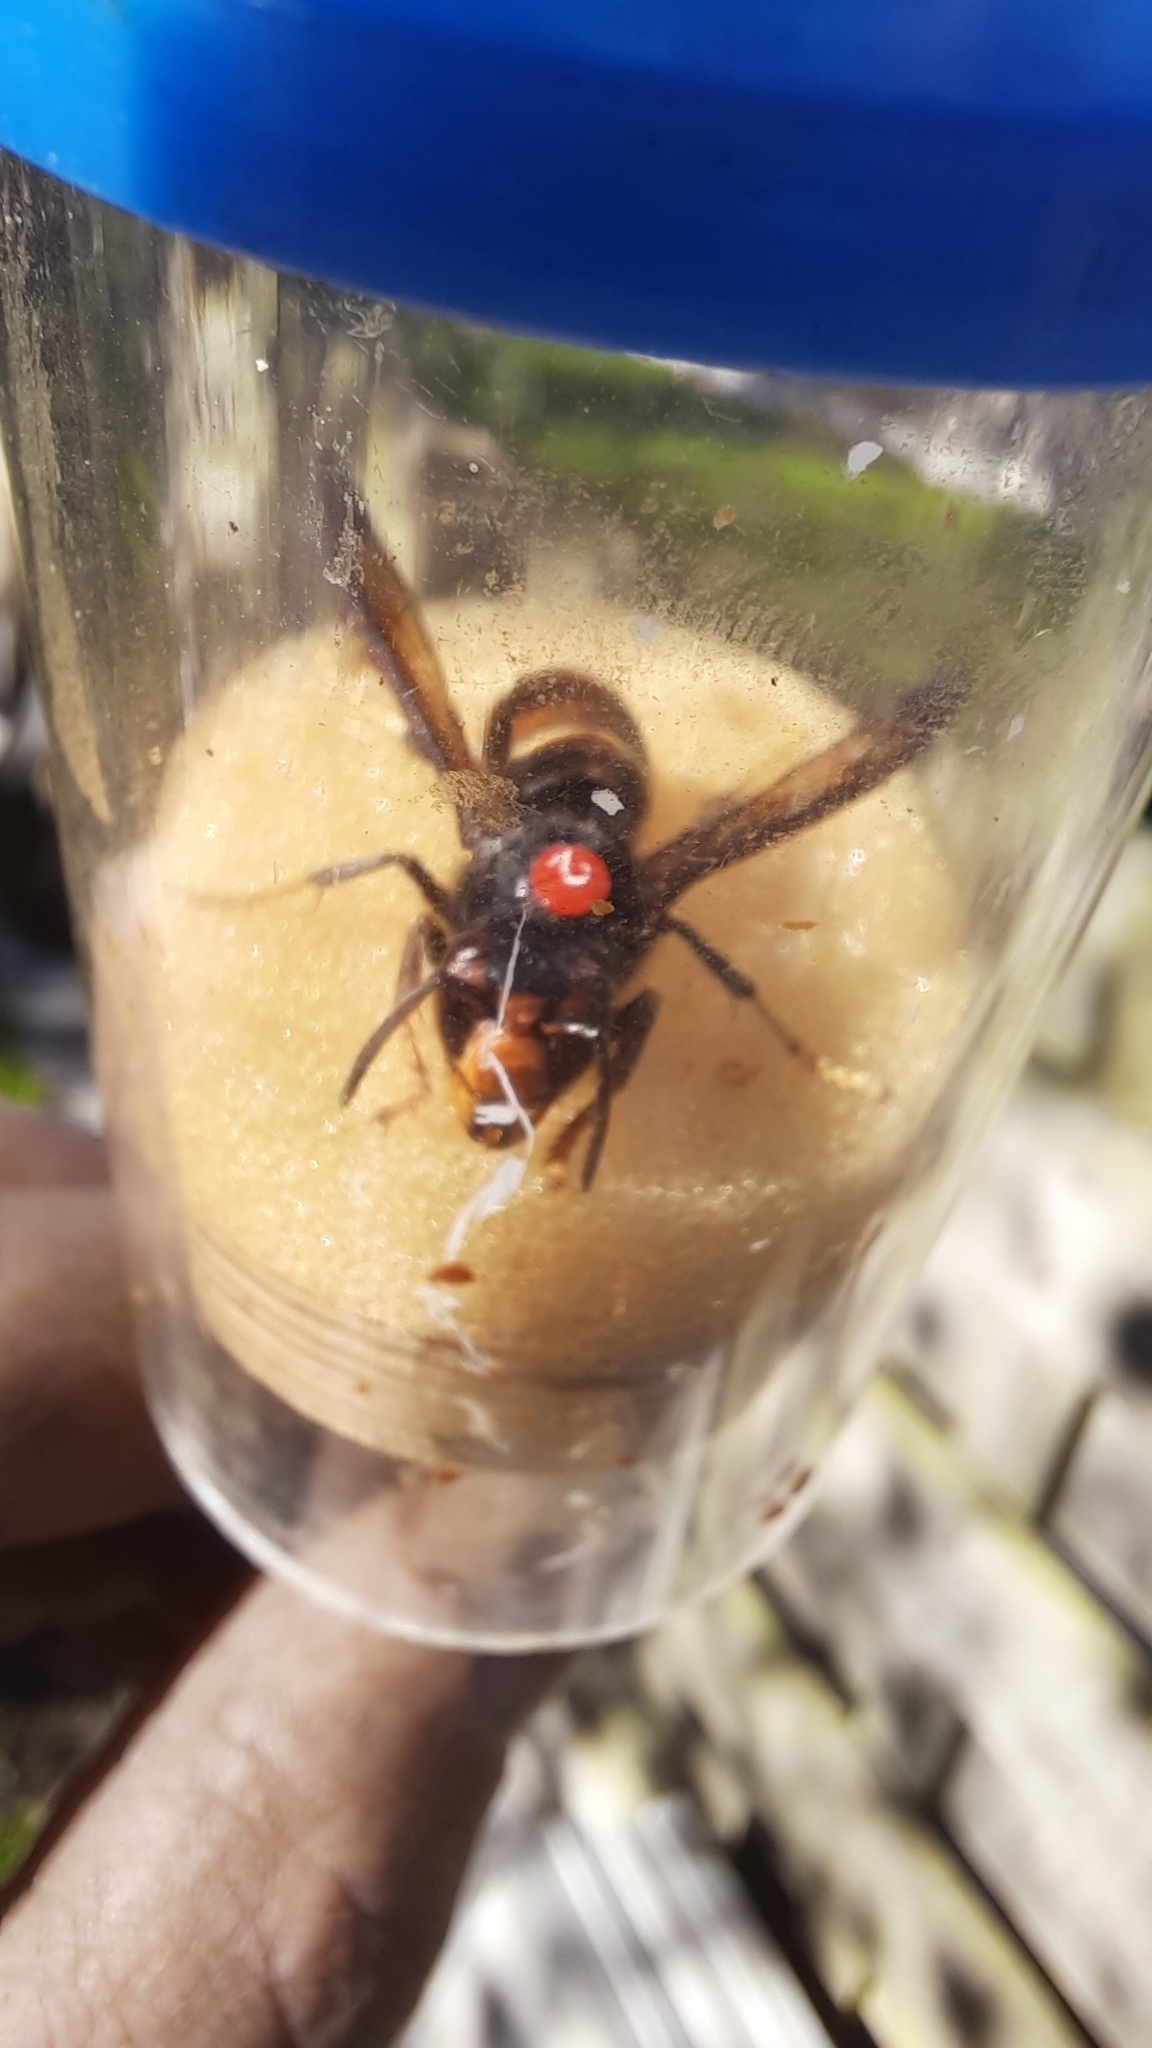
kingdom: Animalia
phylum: Arthropoda
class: Insecta
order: Hymenoptera
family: Vespidae
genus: Vespa
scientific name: Vespa velutina
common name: Asian hornet
